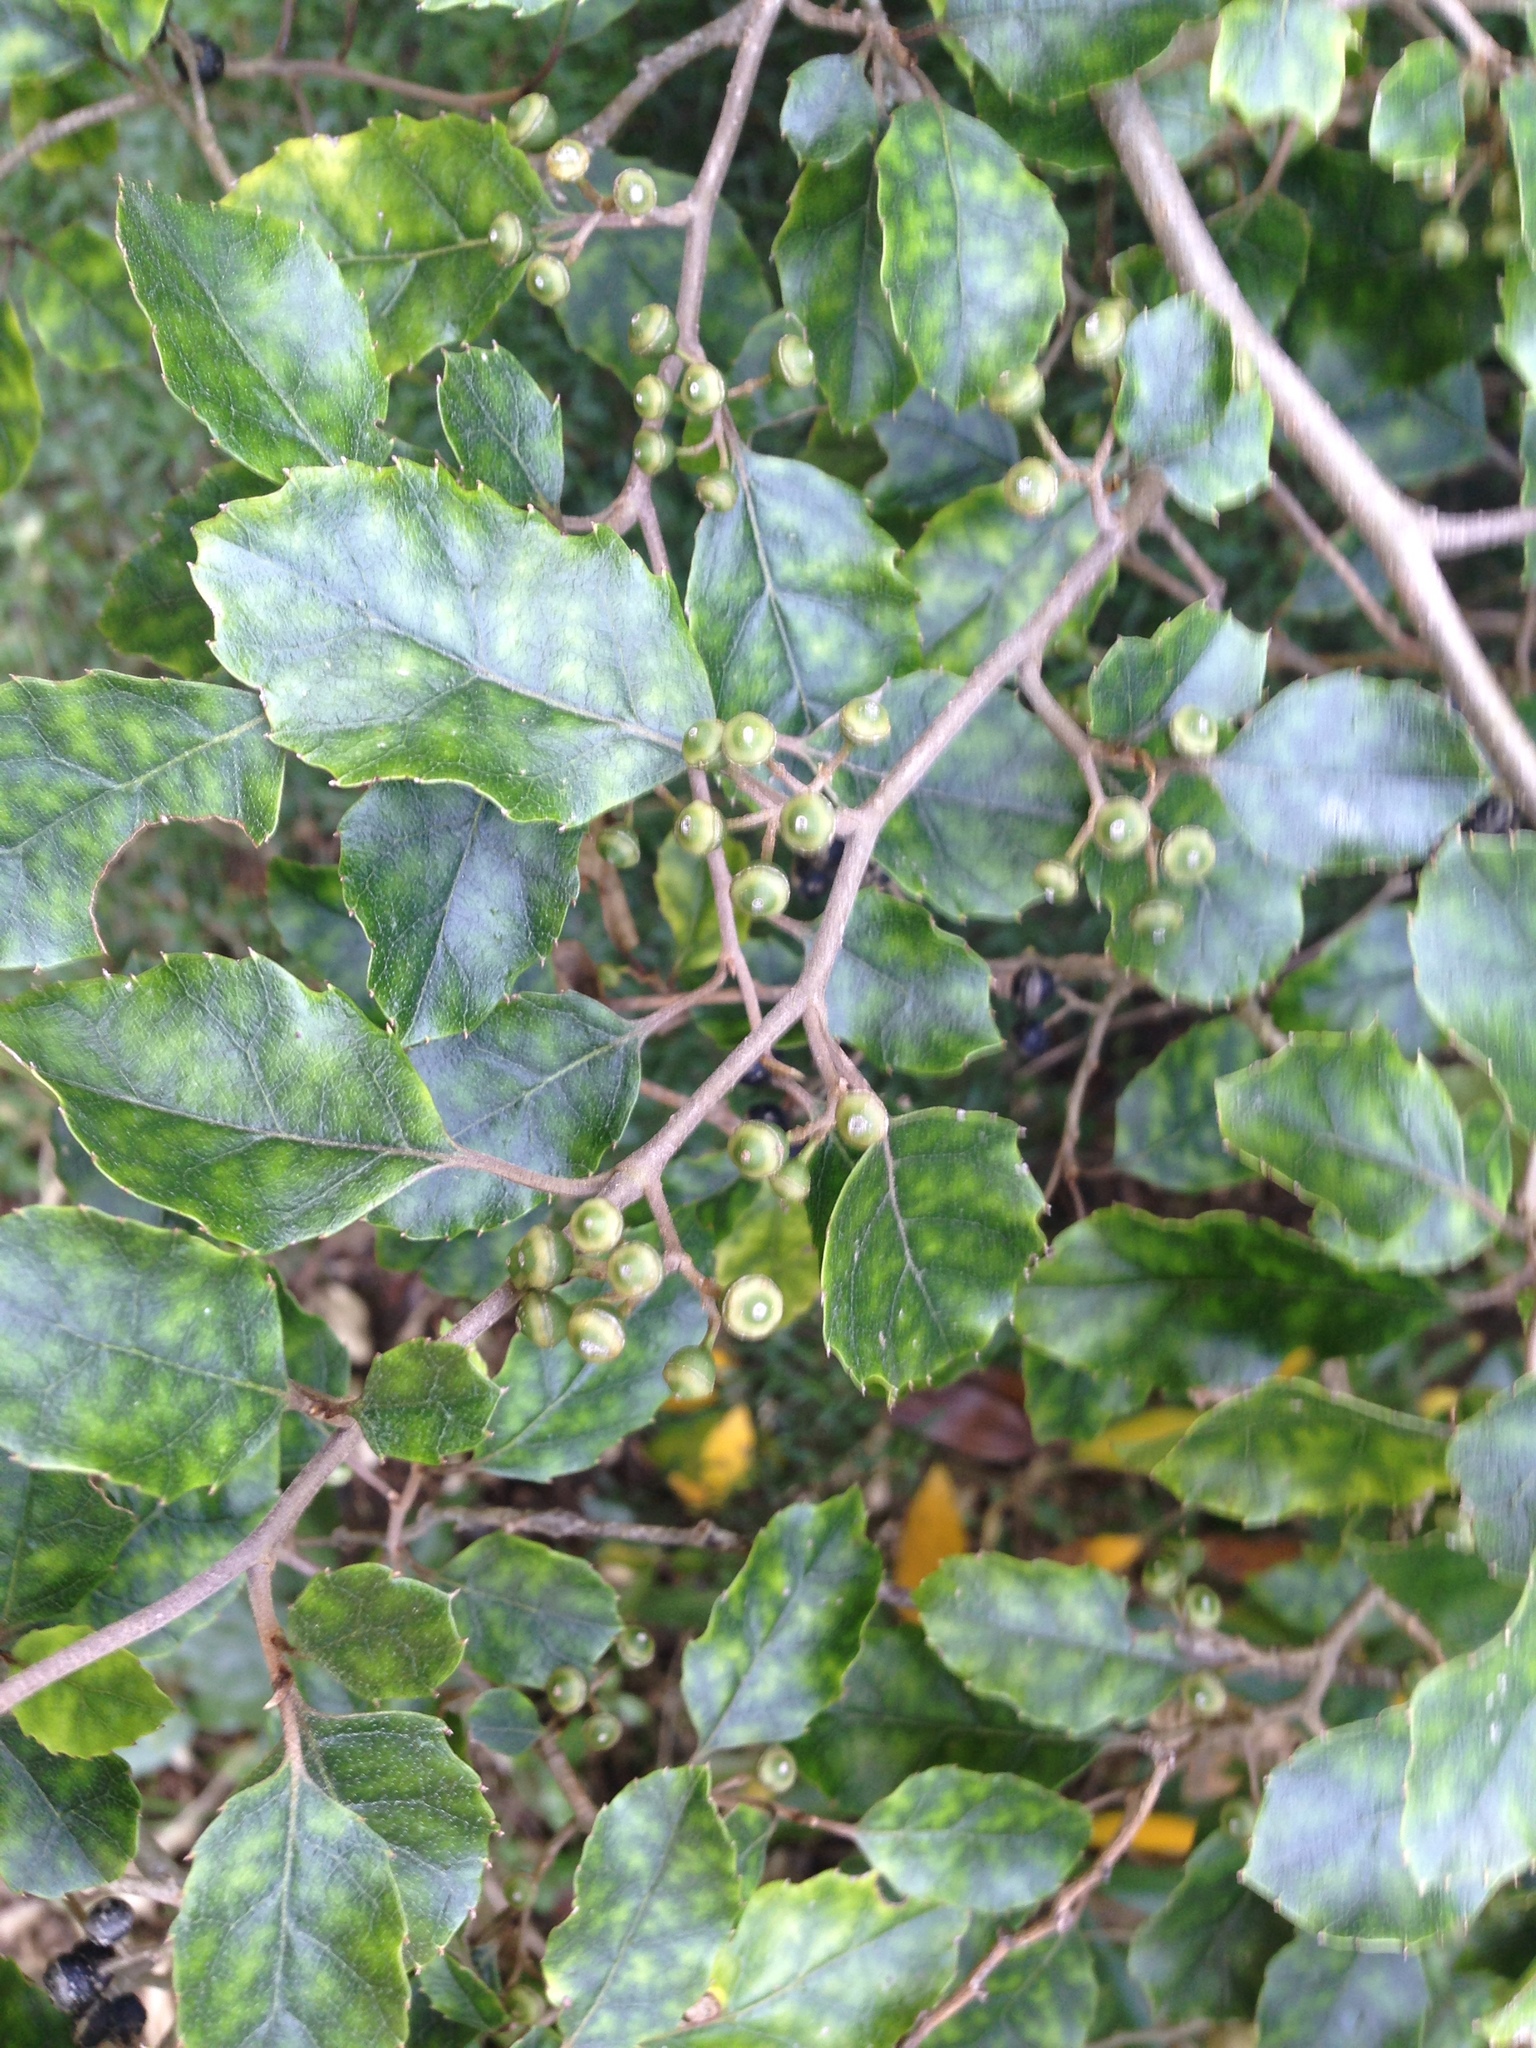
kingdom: Plantae
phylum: Tracheophyta
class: Magnoliopsida
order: Asterales
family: Rousseaceae
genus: Carpodetus
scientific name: Carpodetus serratus
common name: White mapau
